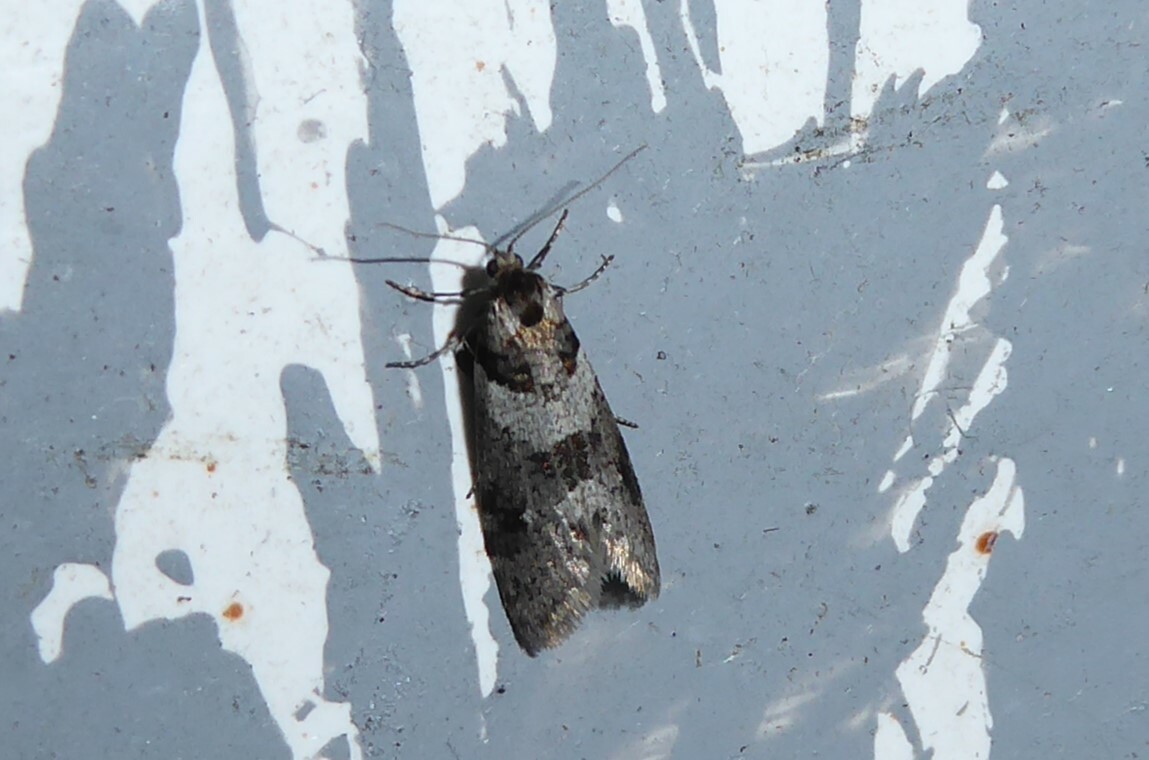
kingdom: Animalia
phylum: Arthropoda
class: Insecta
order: Lepidoptera
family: Psychidae
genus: Lepidoscia
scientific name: Lepidoscia heliochares
